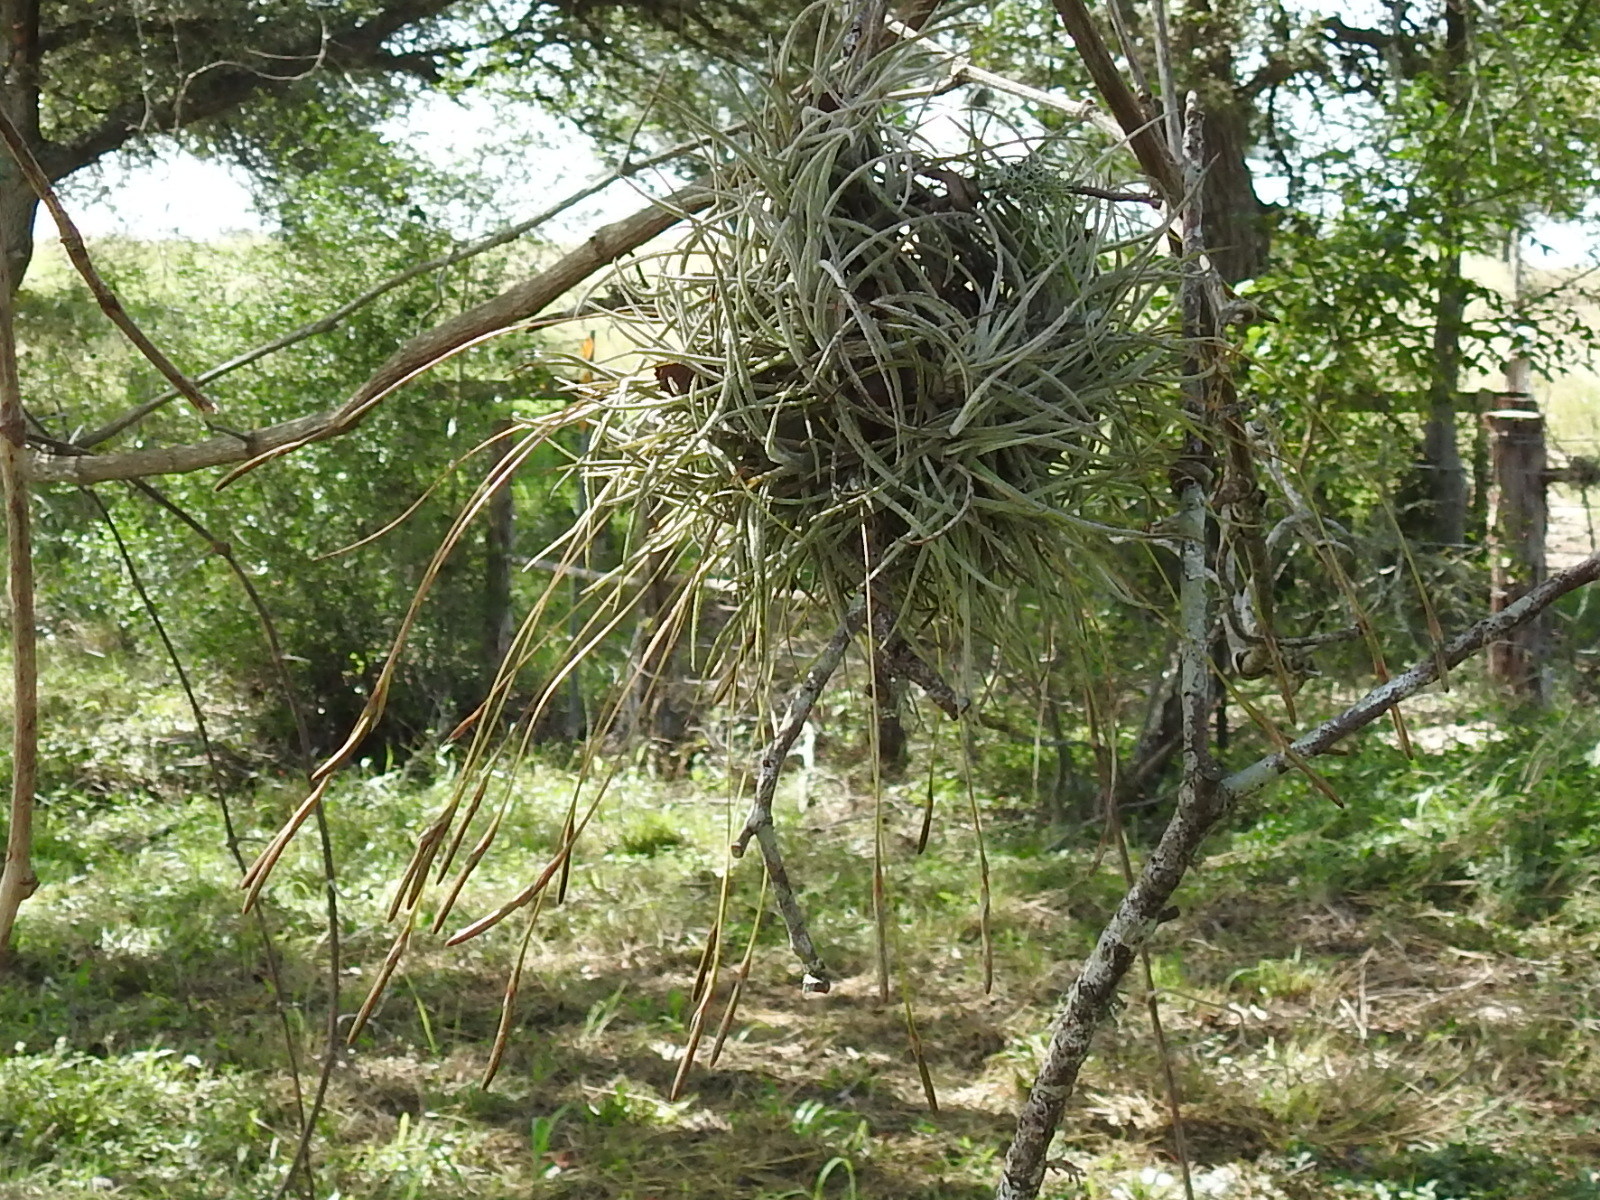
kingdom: Plantae
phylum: Tracheophyta
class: Liliopsida
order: Poales
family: Bromeliaceae
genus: Tillandsia
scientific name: Tillandsia recurvata
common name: Small ballmoss
